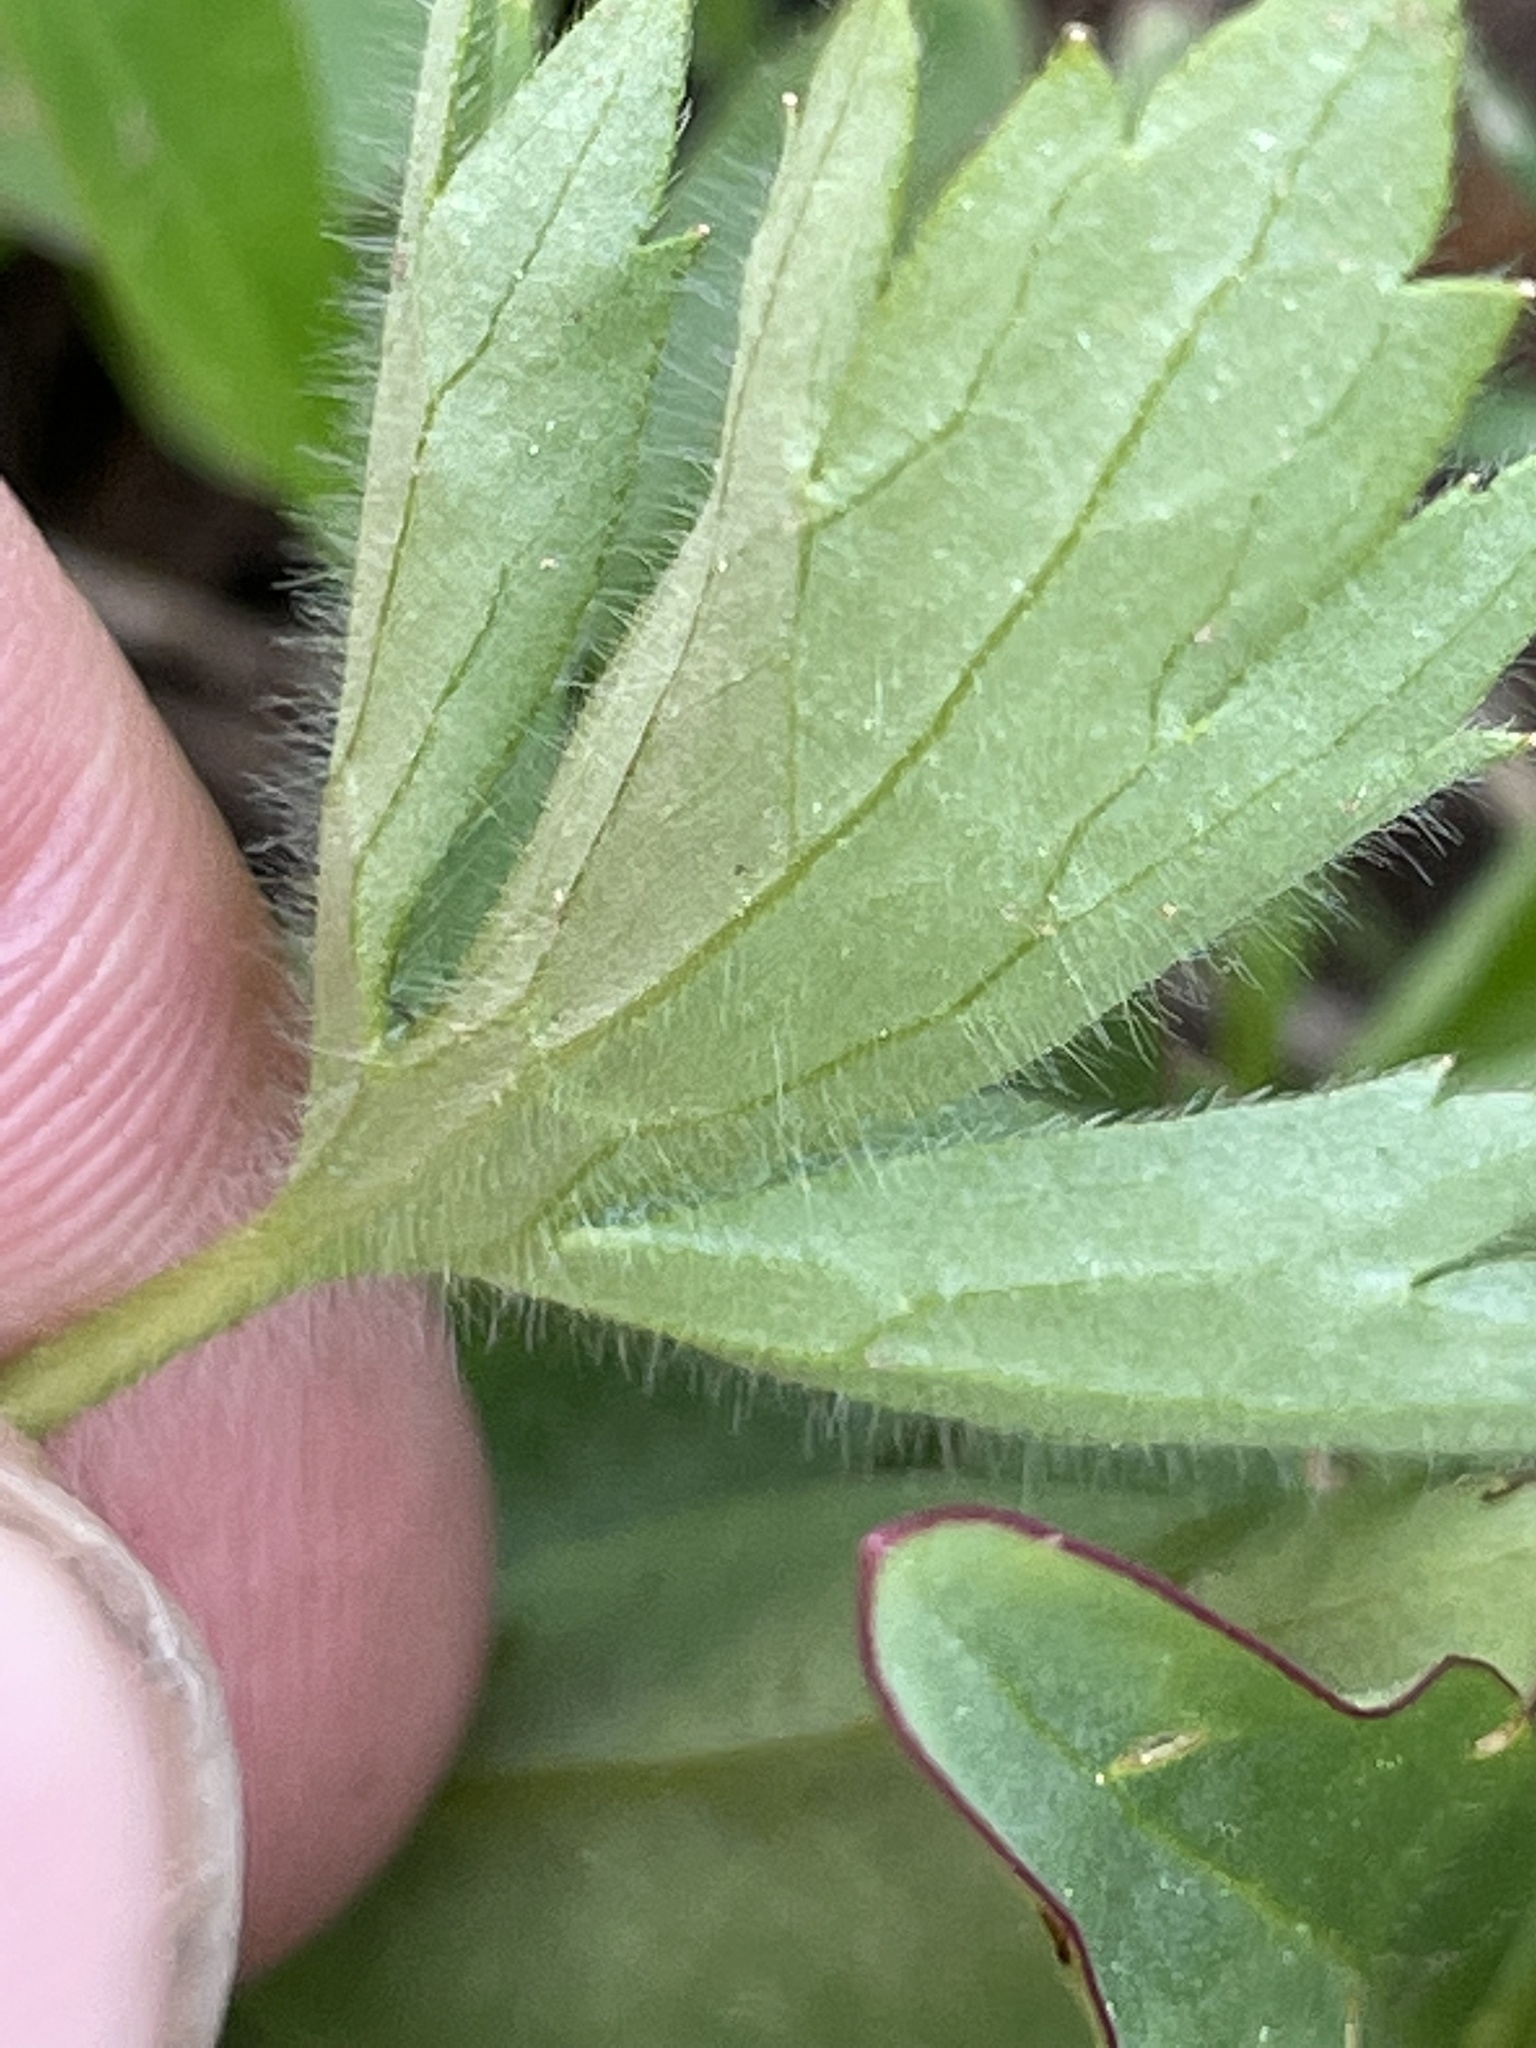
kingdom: Plantae
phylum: Tracheophyta
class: Magnoliopsida
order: Ranunculales
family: Ranunculaceae
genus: Ranunculus
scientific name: Ranunculus uncinatus
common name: Little buttercup
